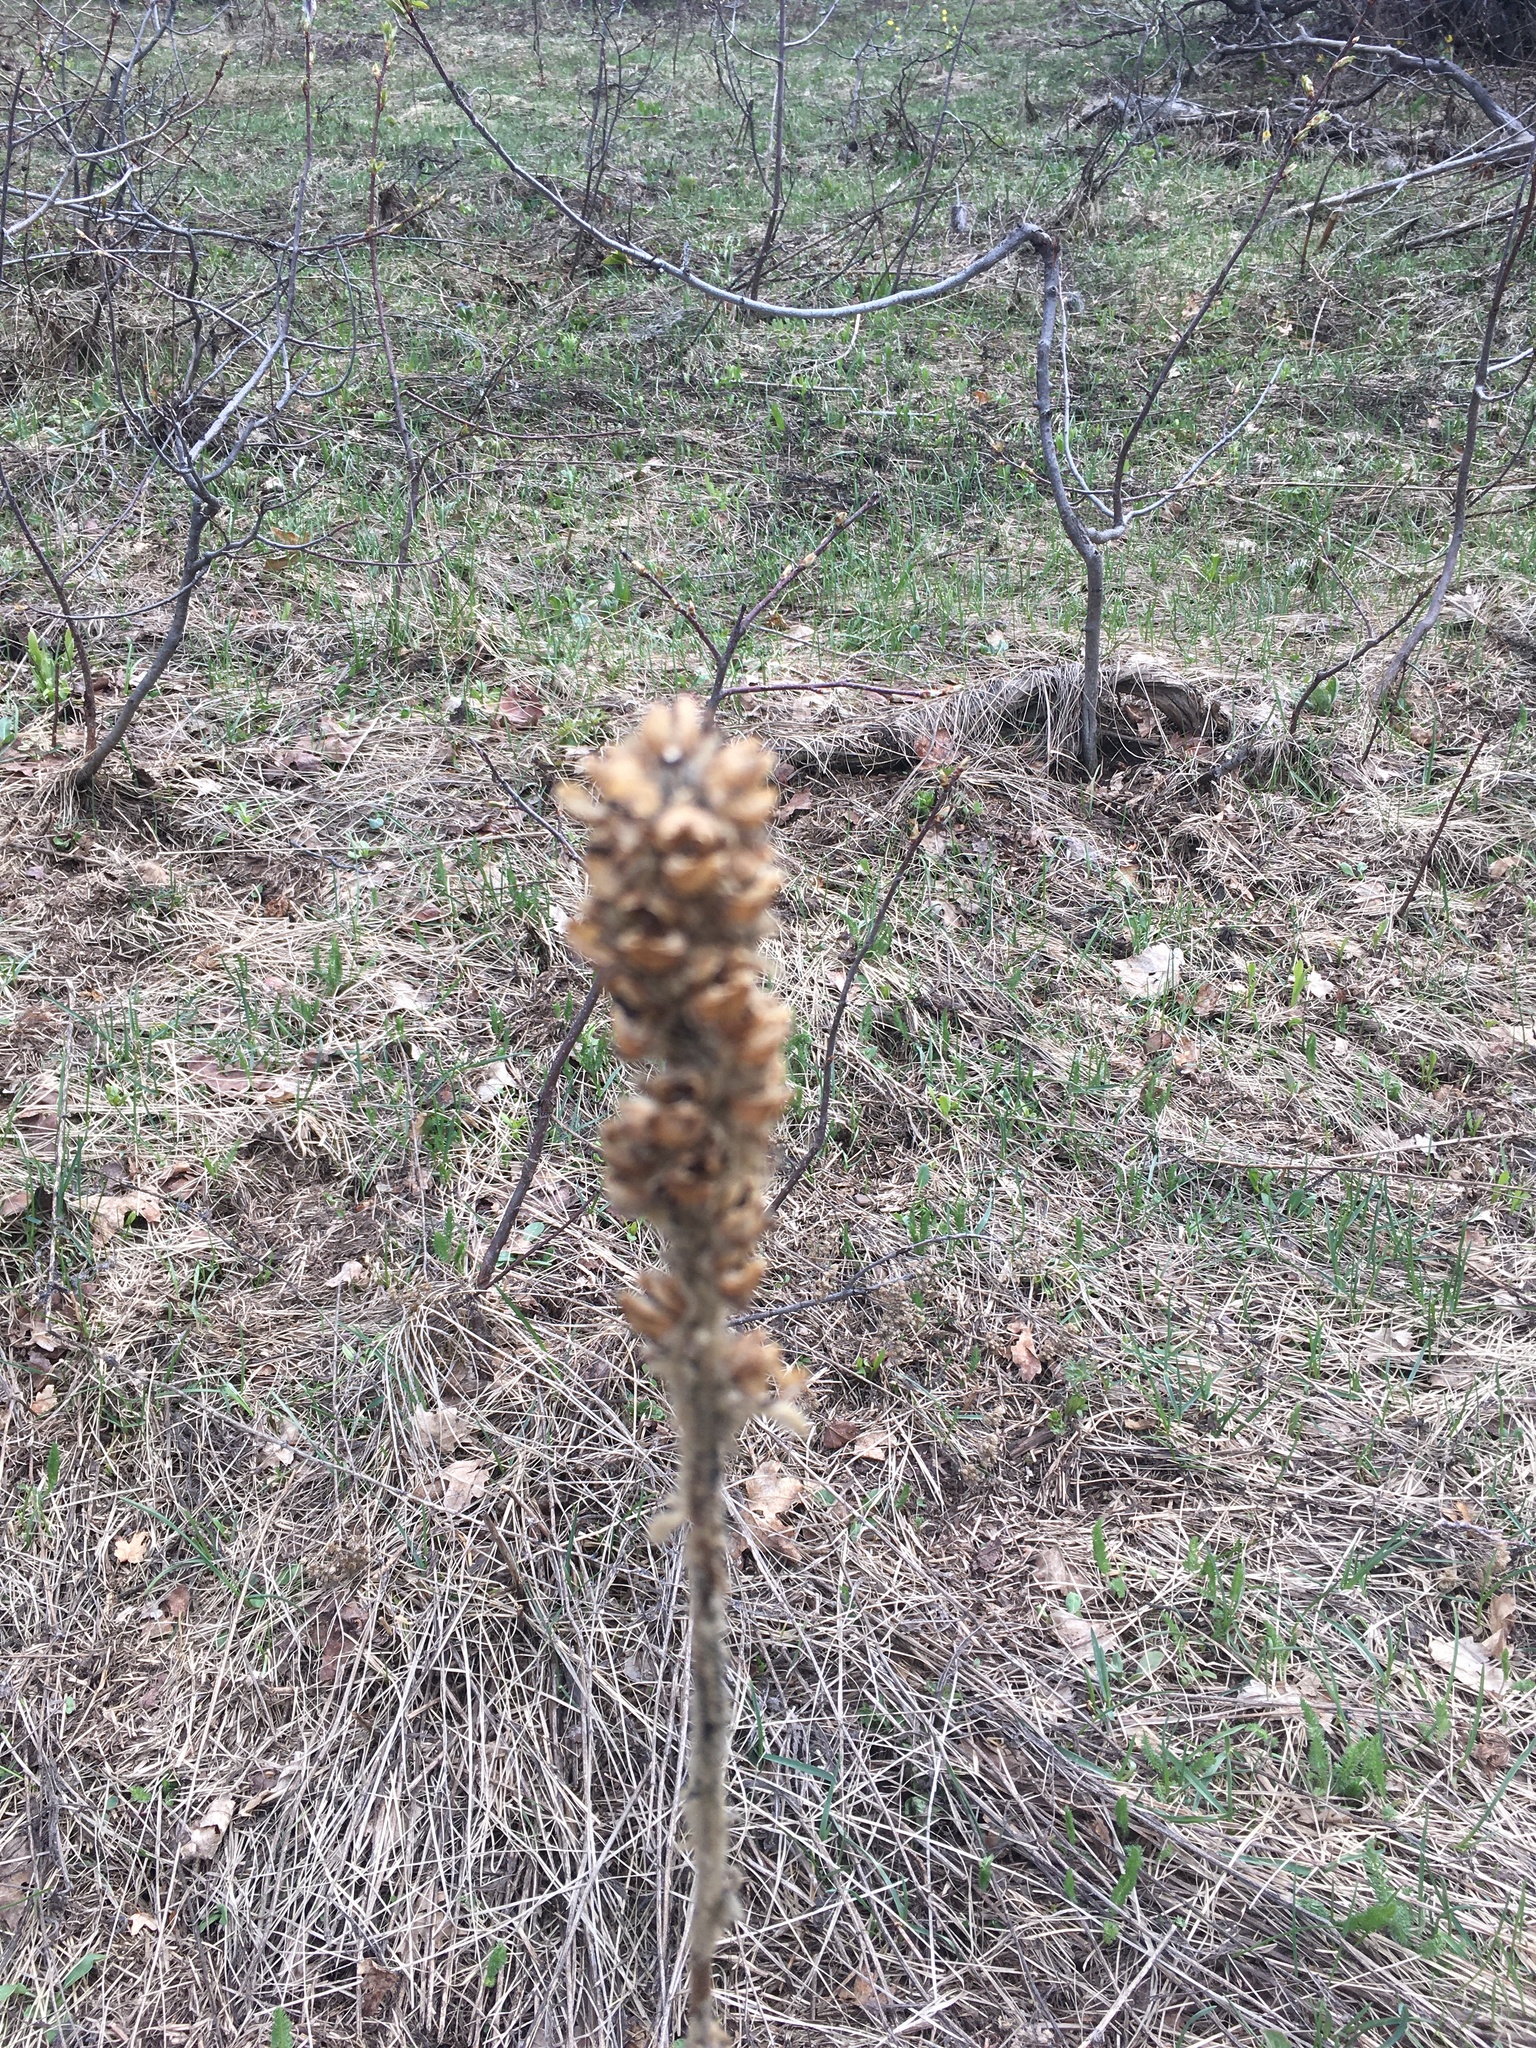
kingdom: Plantae
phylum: Tracheophyta
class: Magnoliopsida
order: Lamiales
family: Scrophulariaceae
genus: Verbascum
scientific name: Verbascum thapsus
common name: Common mullein
